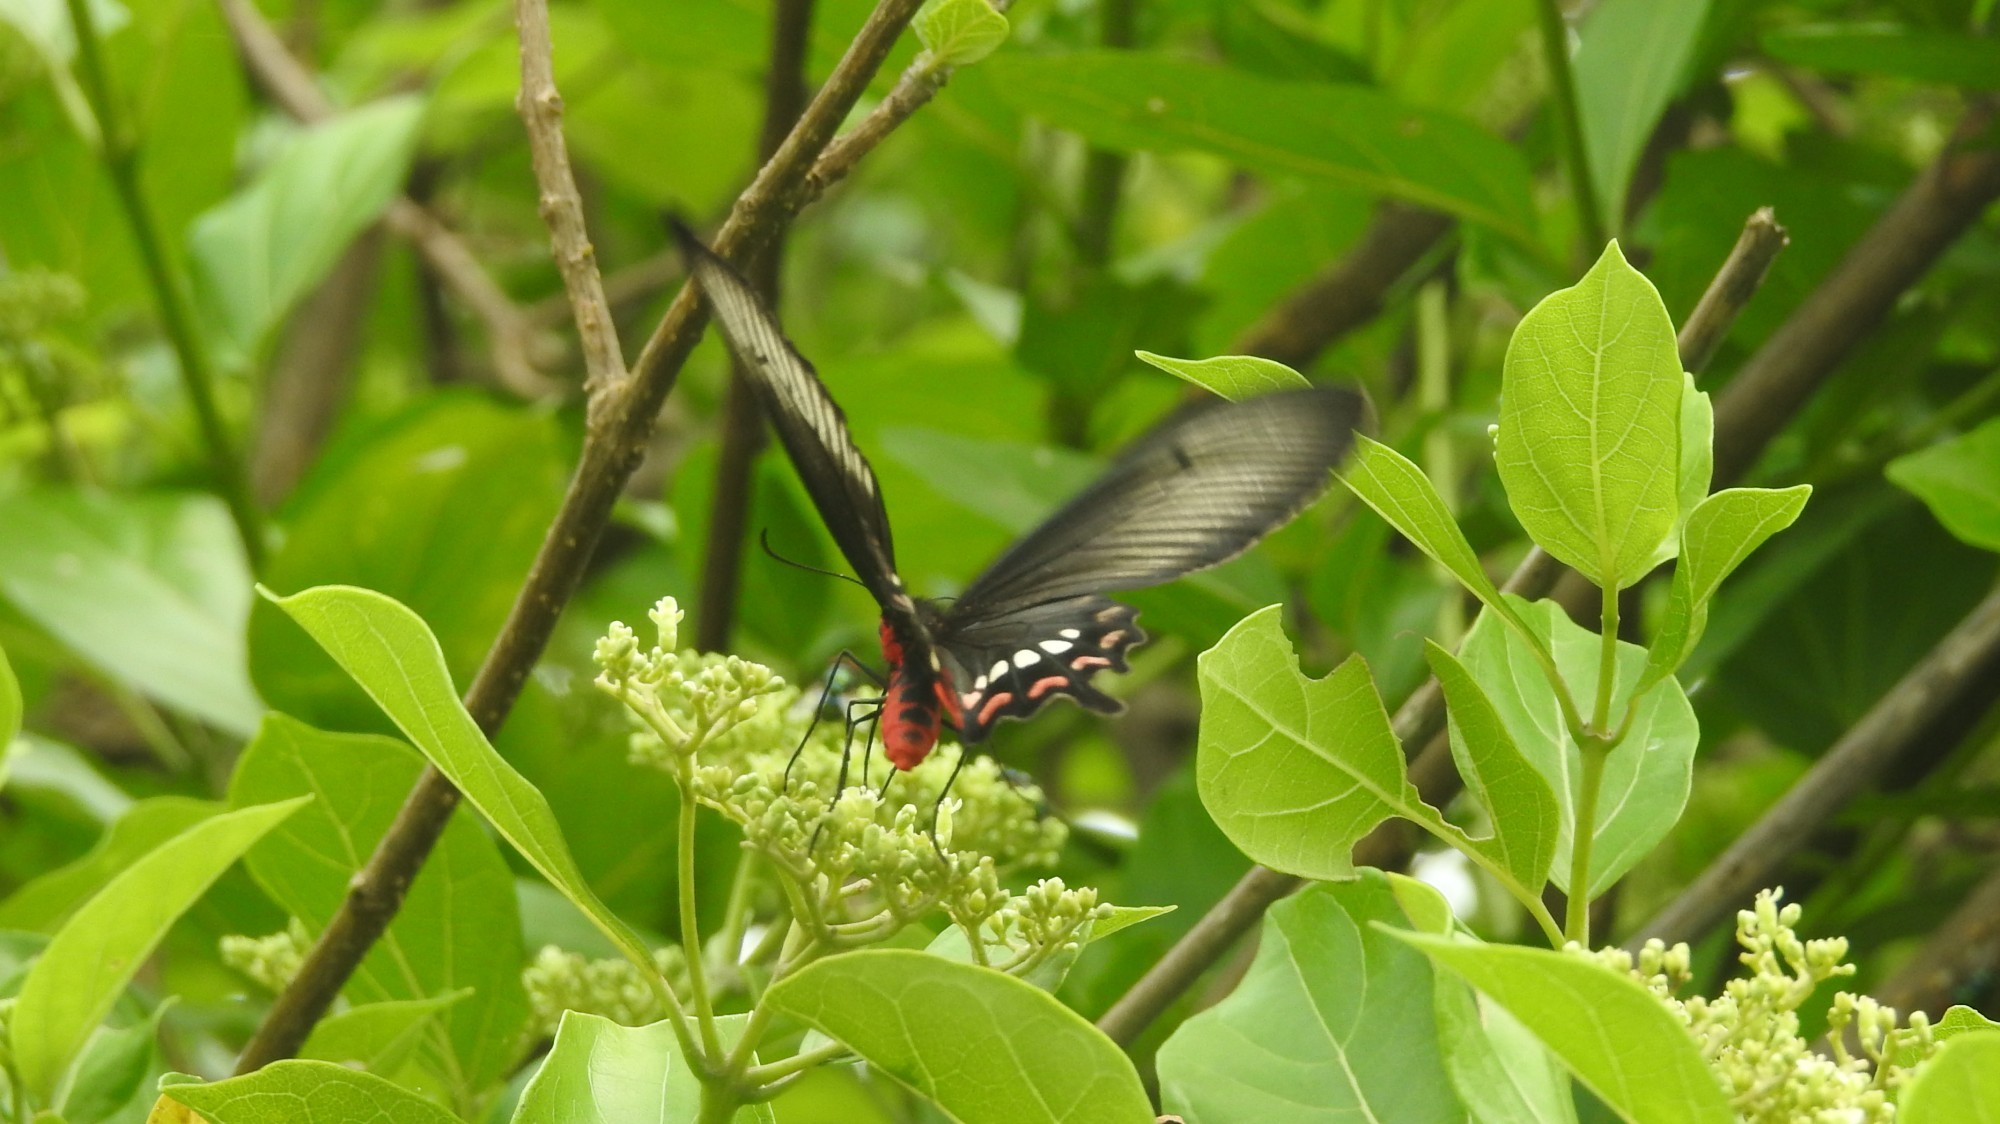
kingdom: Animalia
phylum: Arthropoda
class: Insecta
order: Lepidoptera
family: Papilionidae
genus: Pachliopta
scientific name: Pachliopta aristolochiae
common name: Common rose
